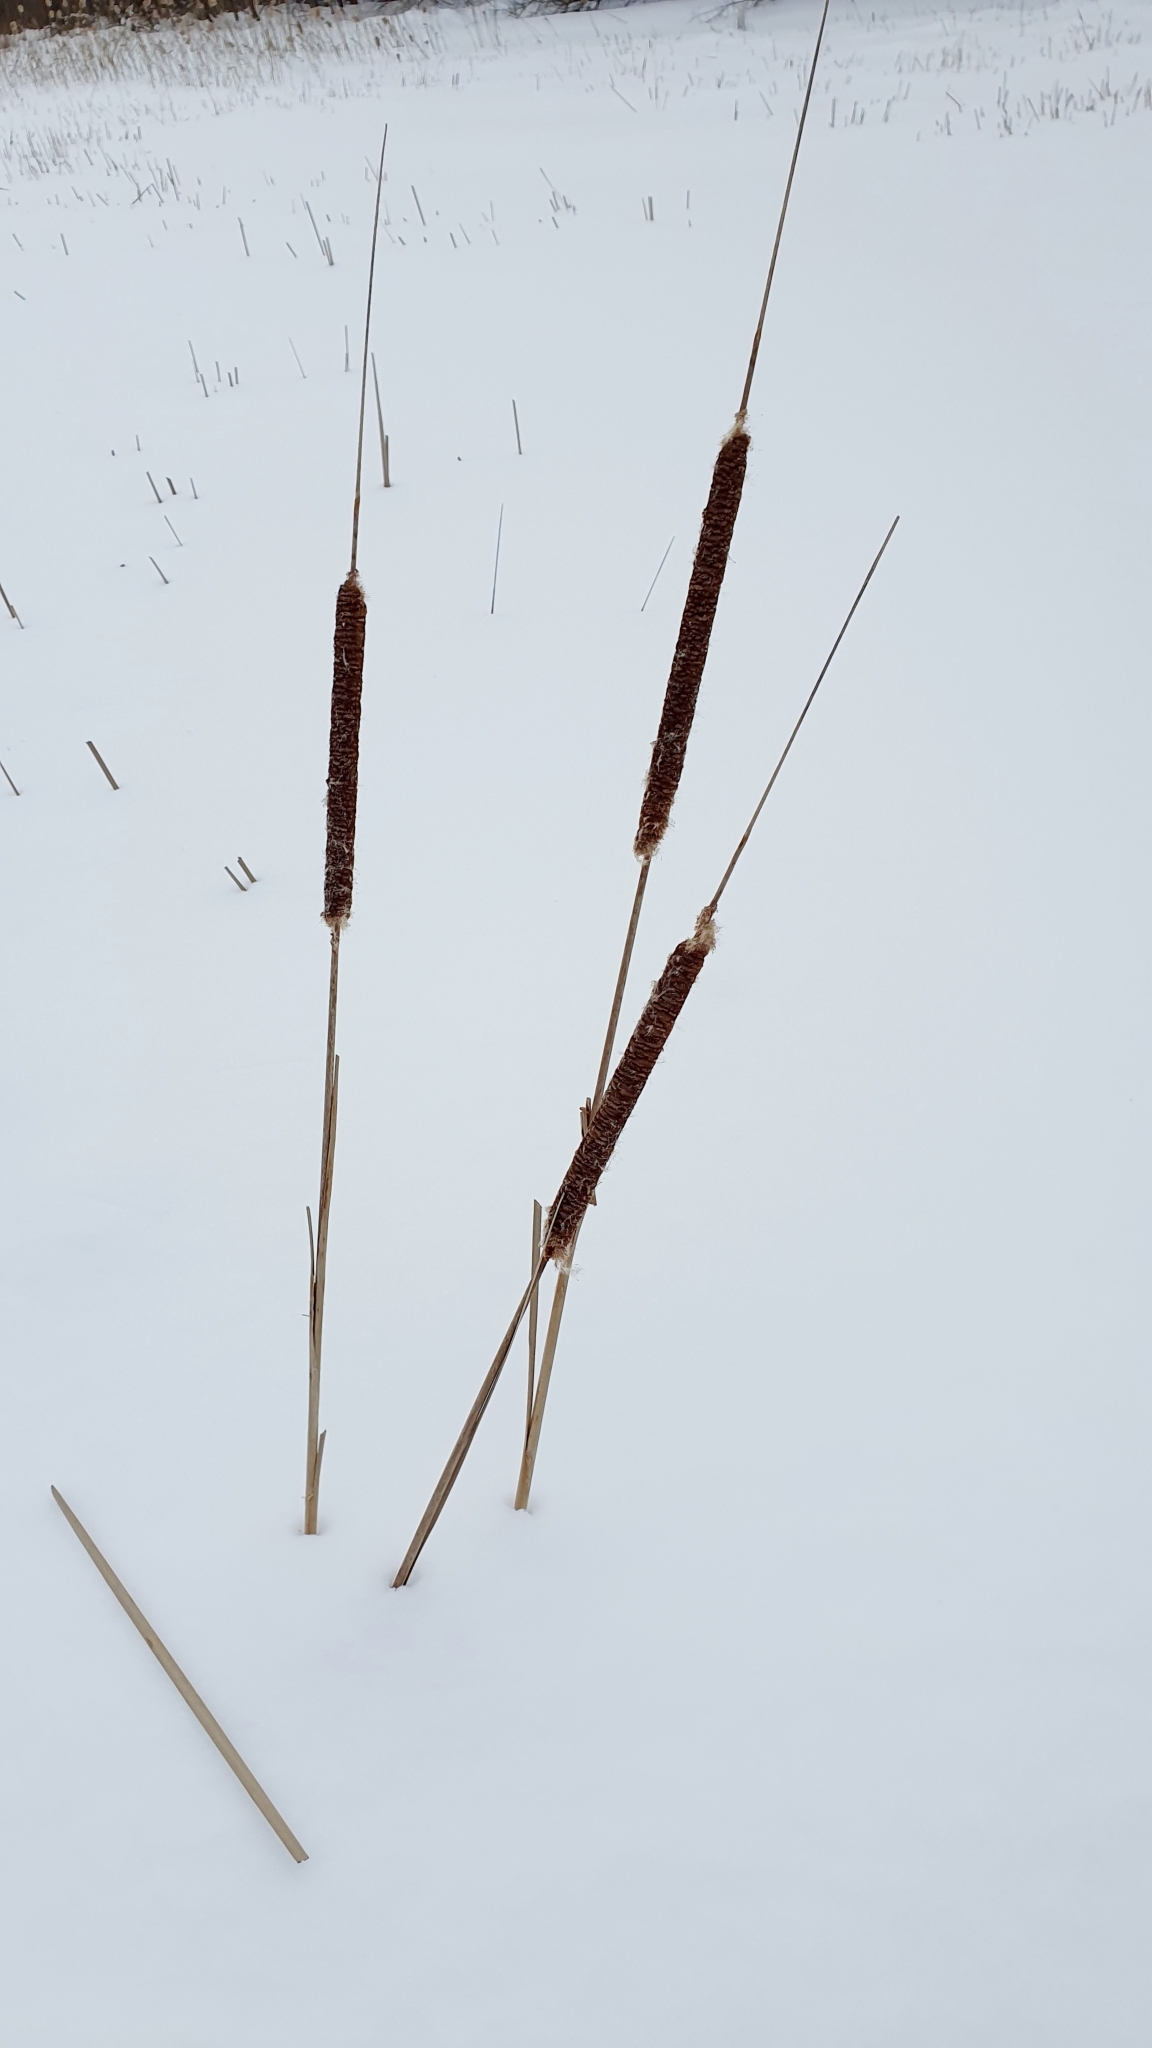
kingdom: Plantae
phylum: Tracheophyta
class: Liliopsida
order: Poales
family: Typhaceae
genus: Typha
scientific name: Typha angustifolia
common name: Lesser bulrush
